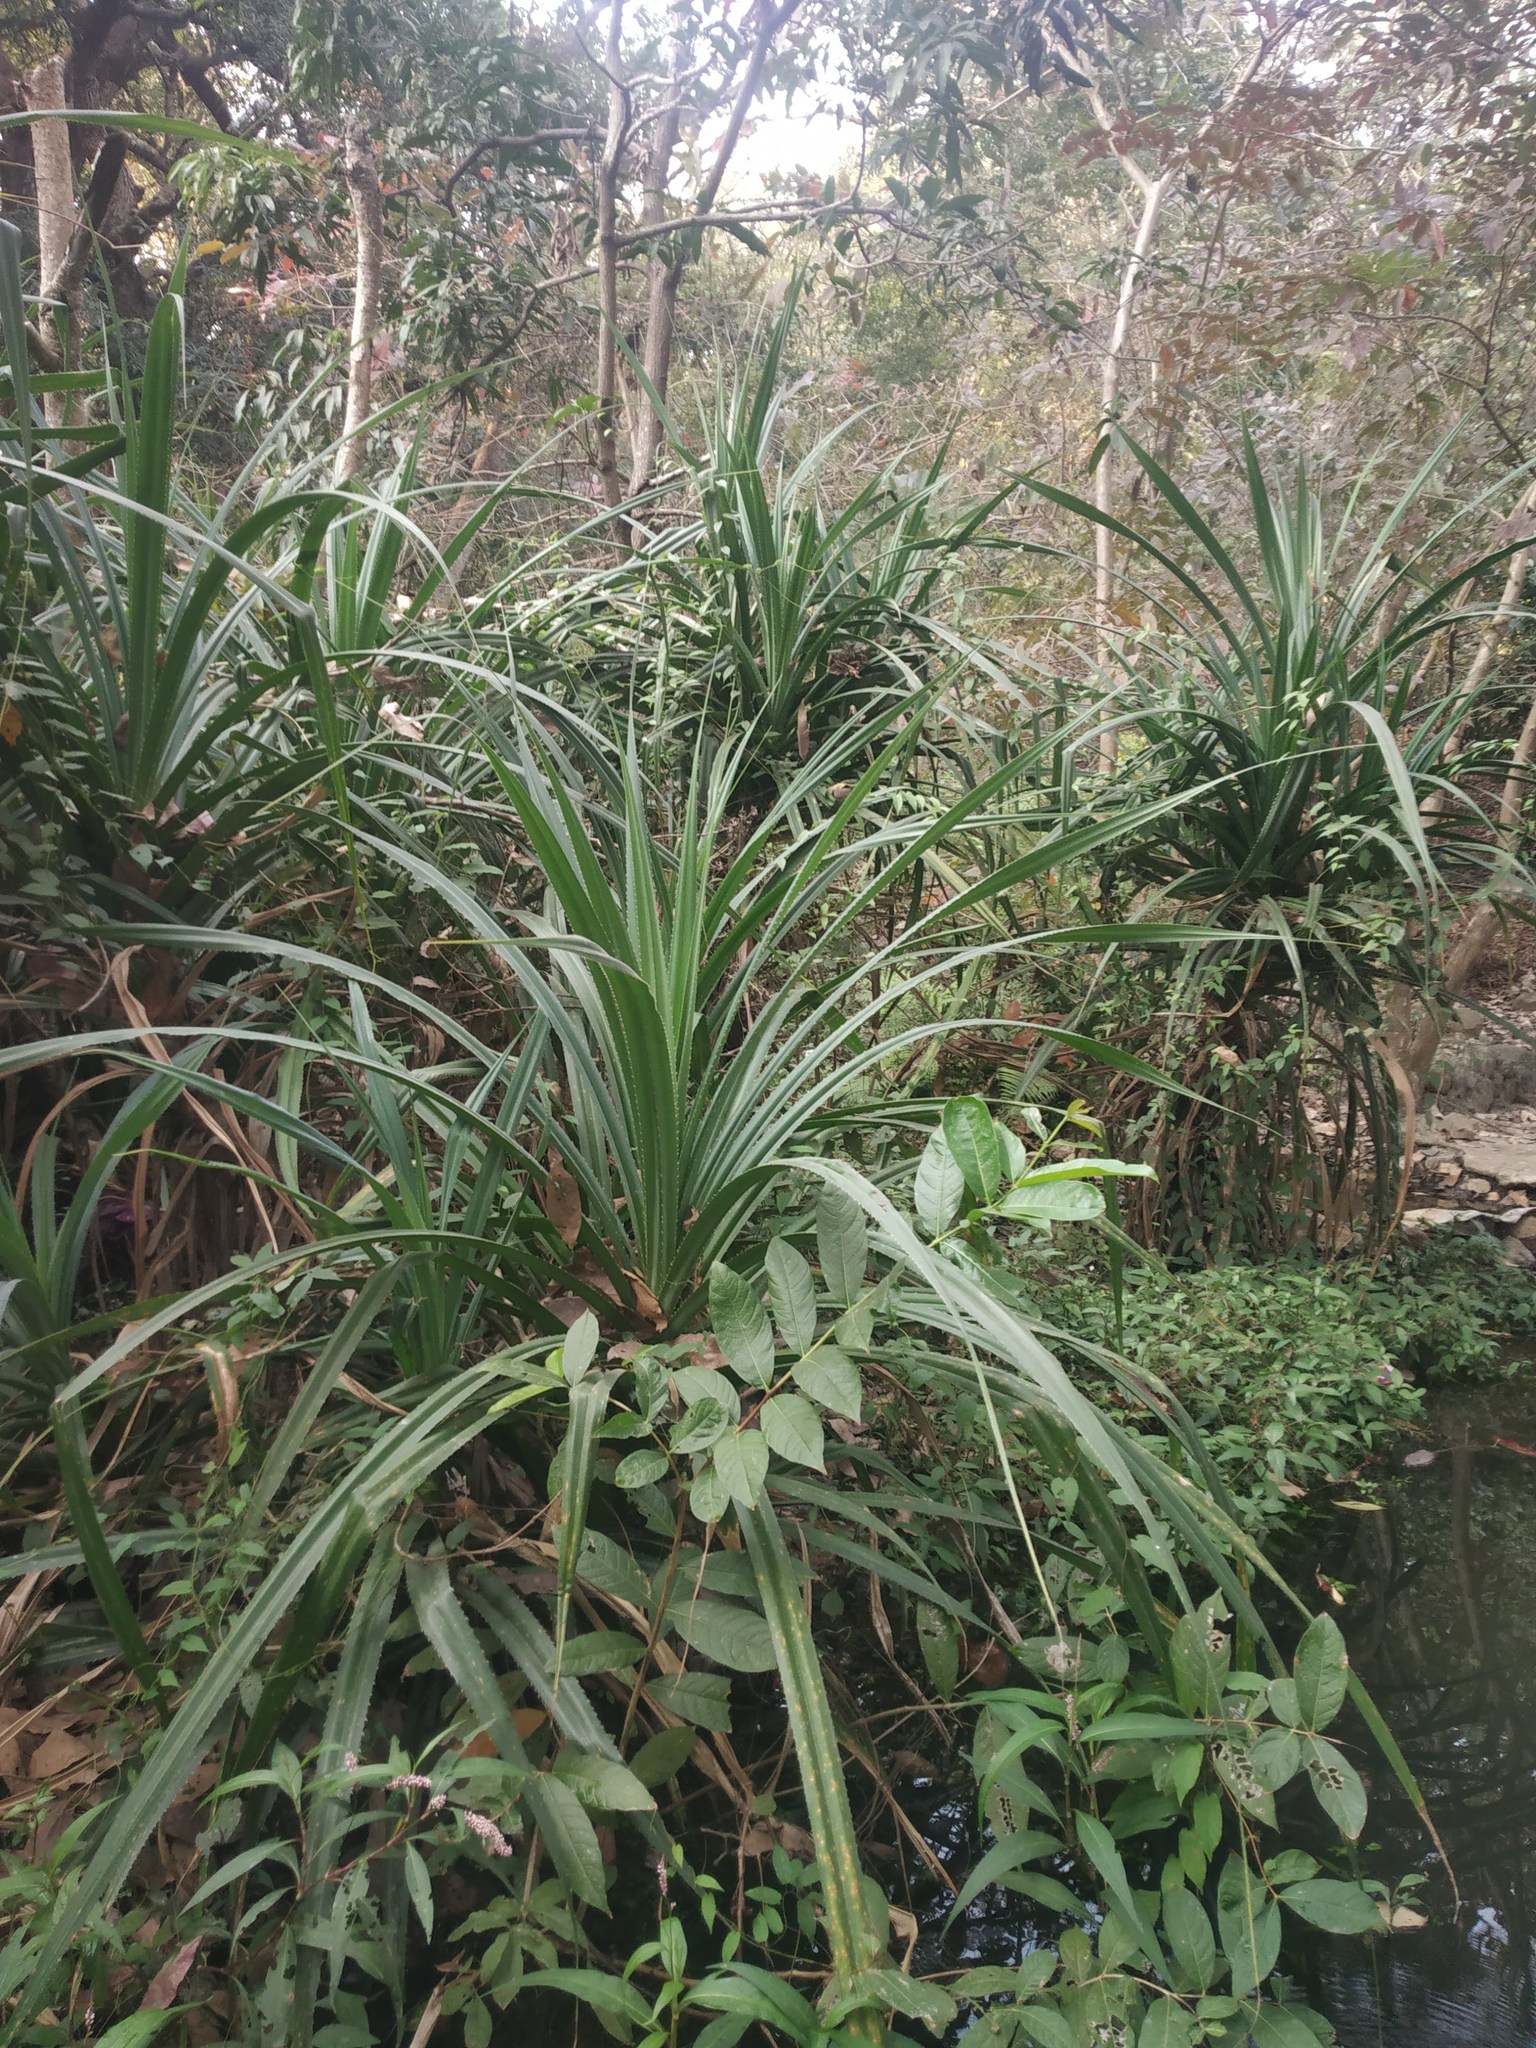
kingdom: Plantae
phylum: Tracheophyta
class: Liliopsida
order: Pandanales
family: Pandanaceae
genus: Pandanus
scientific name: Pandanus odorifer
